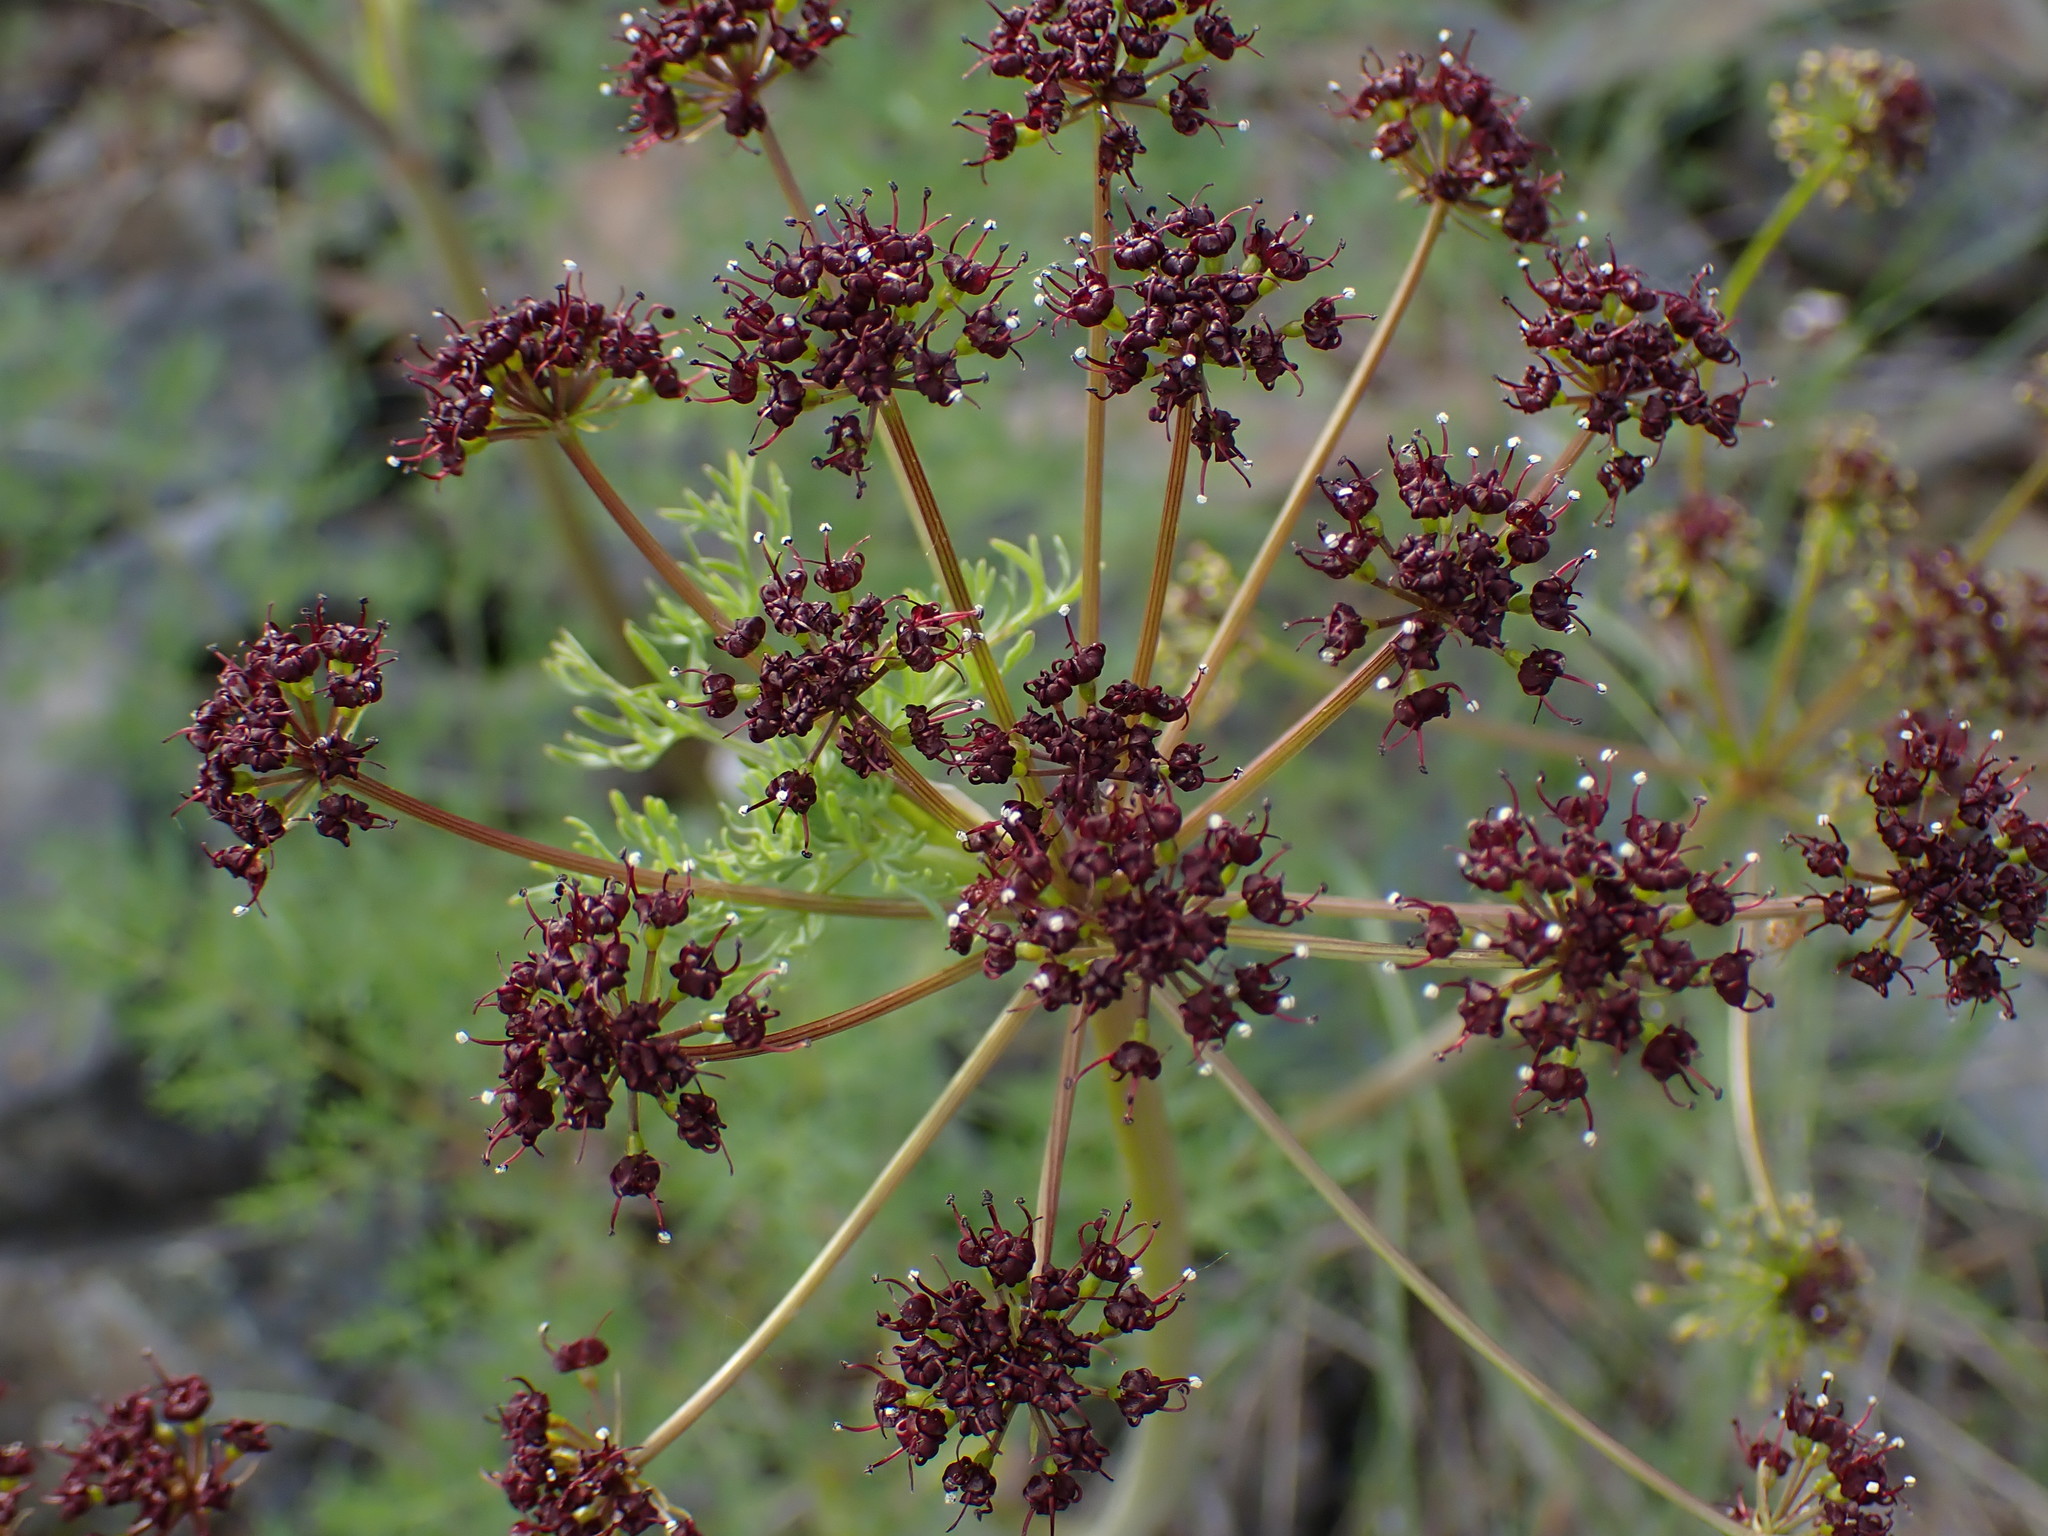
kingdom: Plantae
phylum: Tracheophyta
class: Magnoliopsida
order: Apiales
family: Apiaceae
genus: Lomatium
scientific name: Lomatium multifidum
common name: Carrot-leaved biscuitroot
